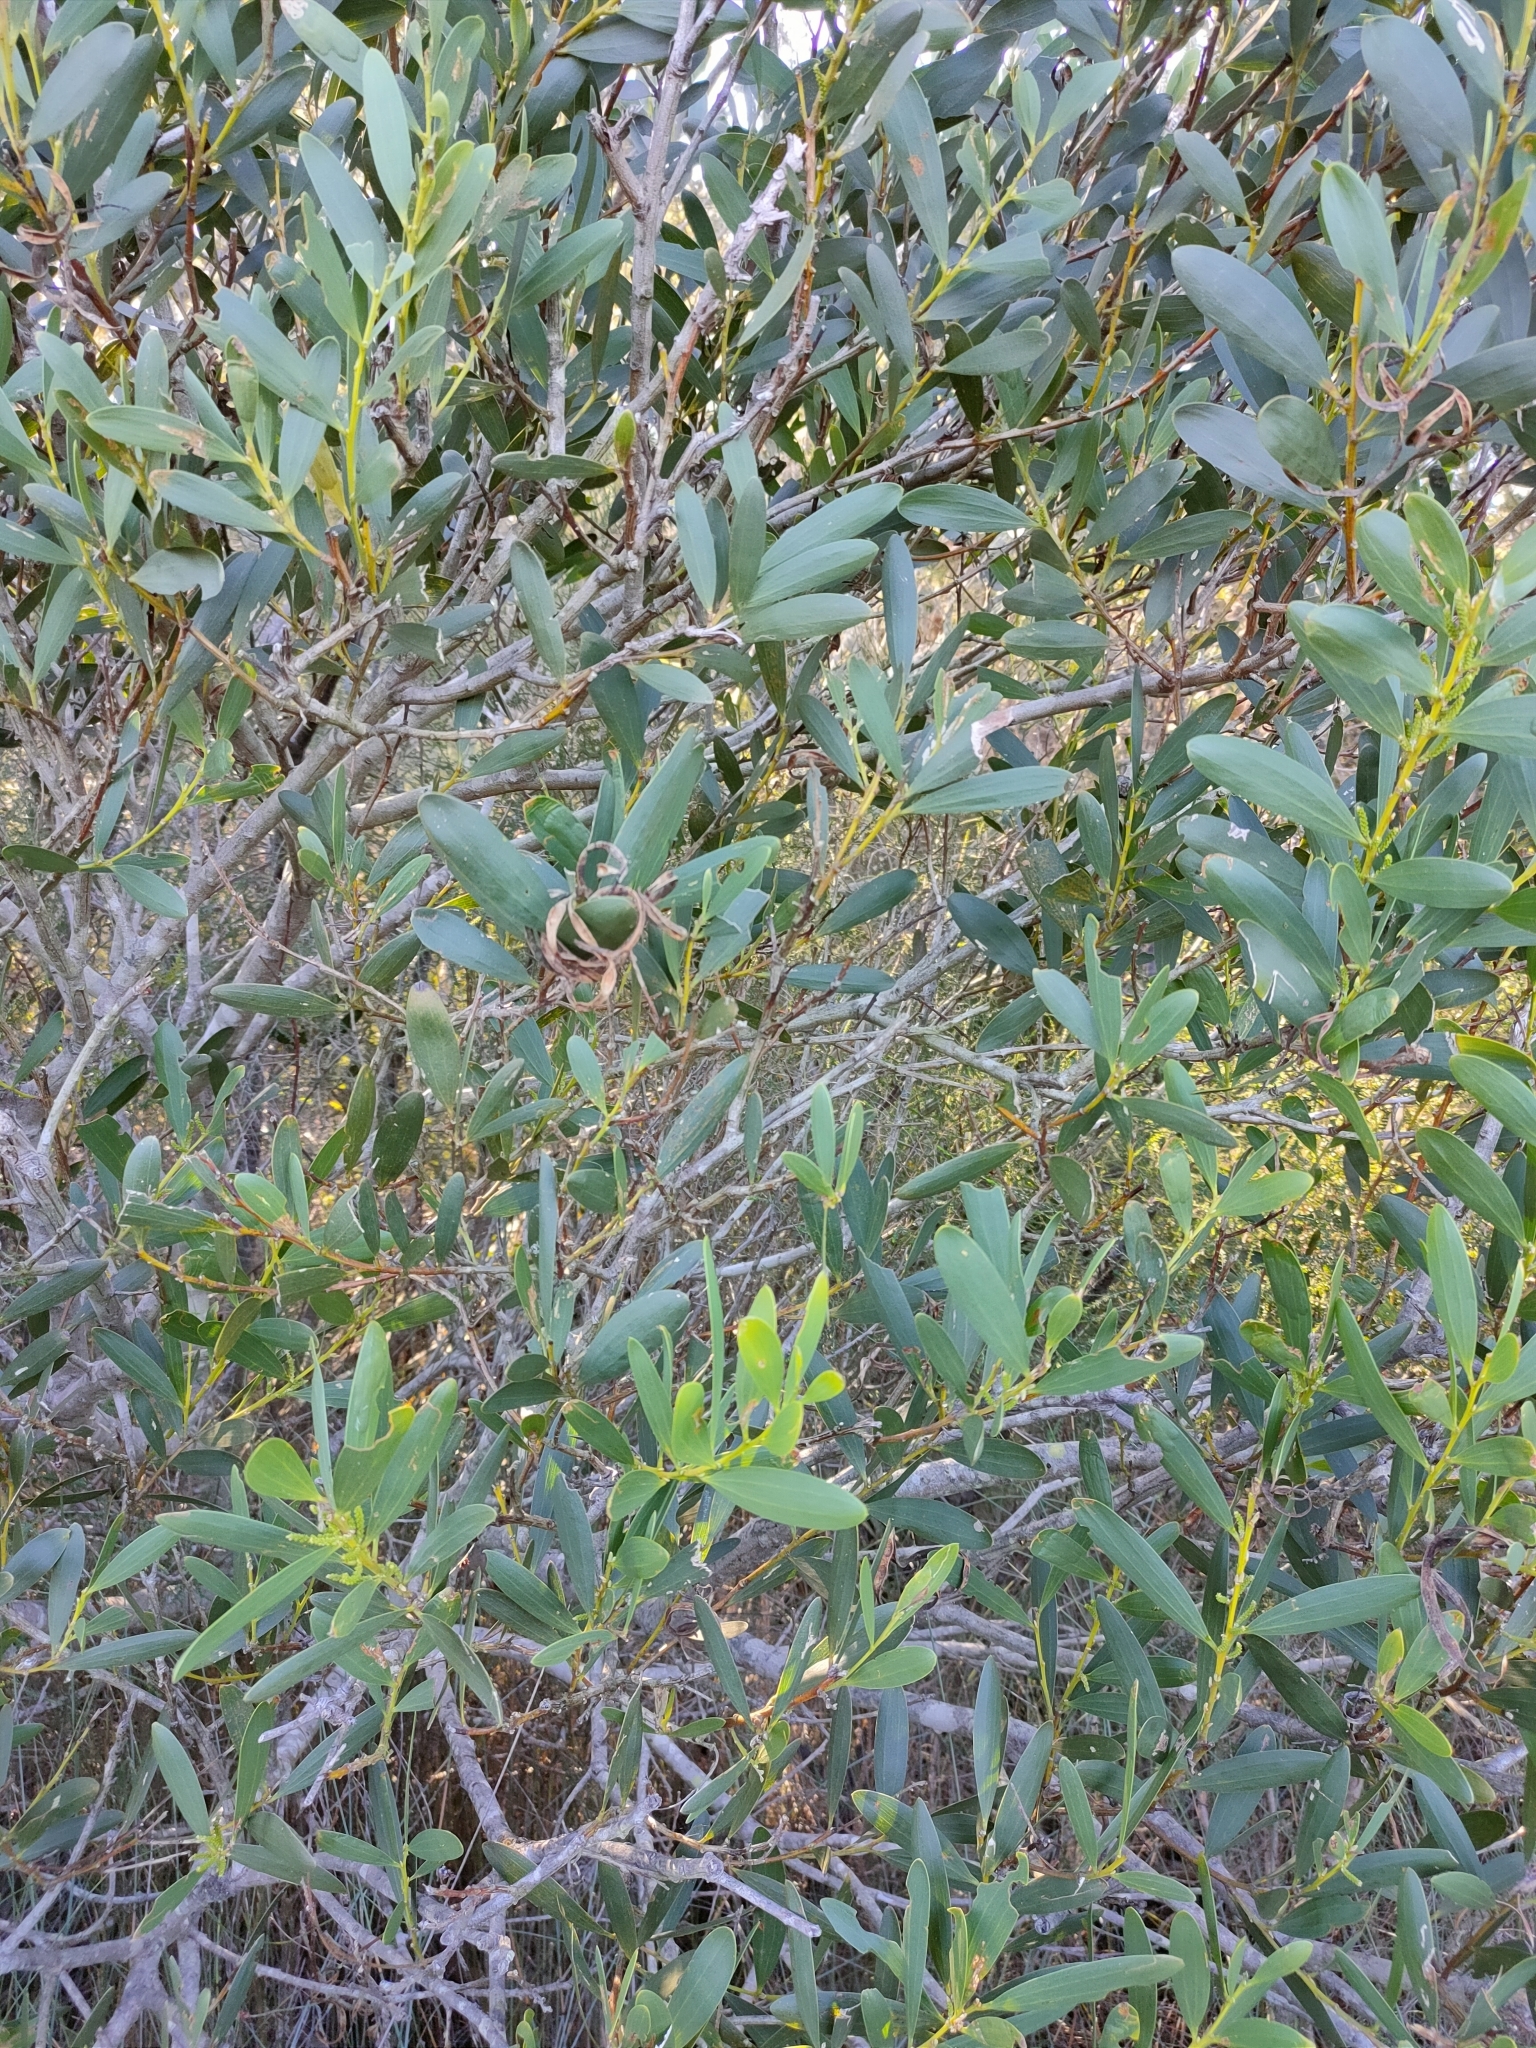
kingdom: Plantae
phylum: Tracheophyta
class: Magnoliopsida
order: Fabales
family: Fabaceae
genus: Acacia
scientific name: Acacia longifolia
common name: Sydney golden wattle
